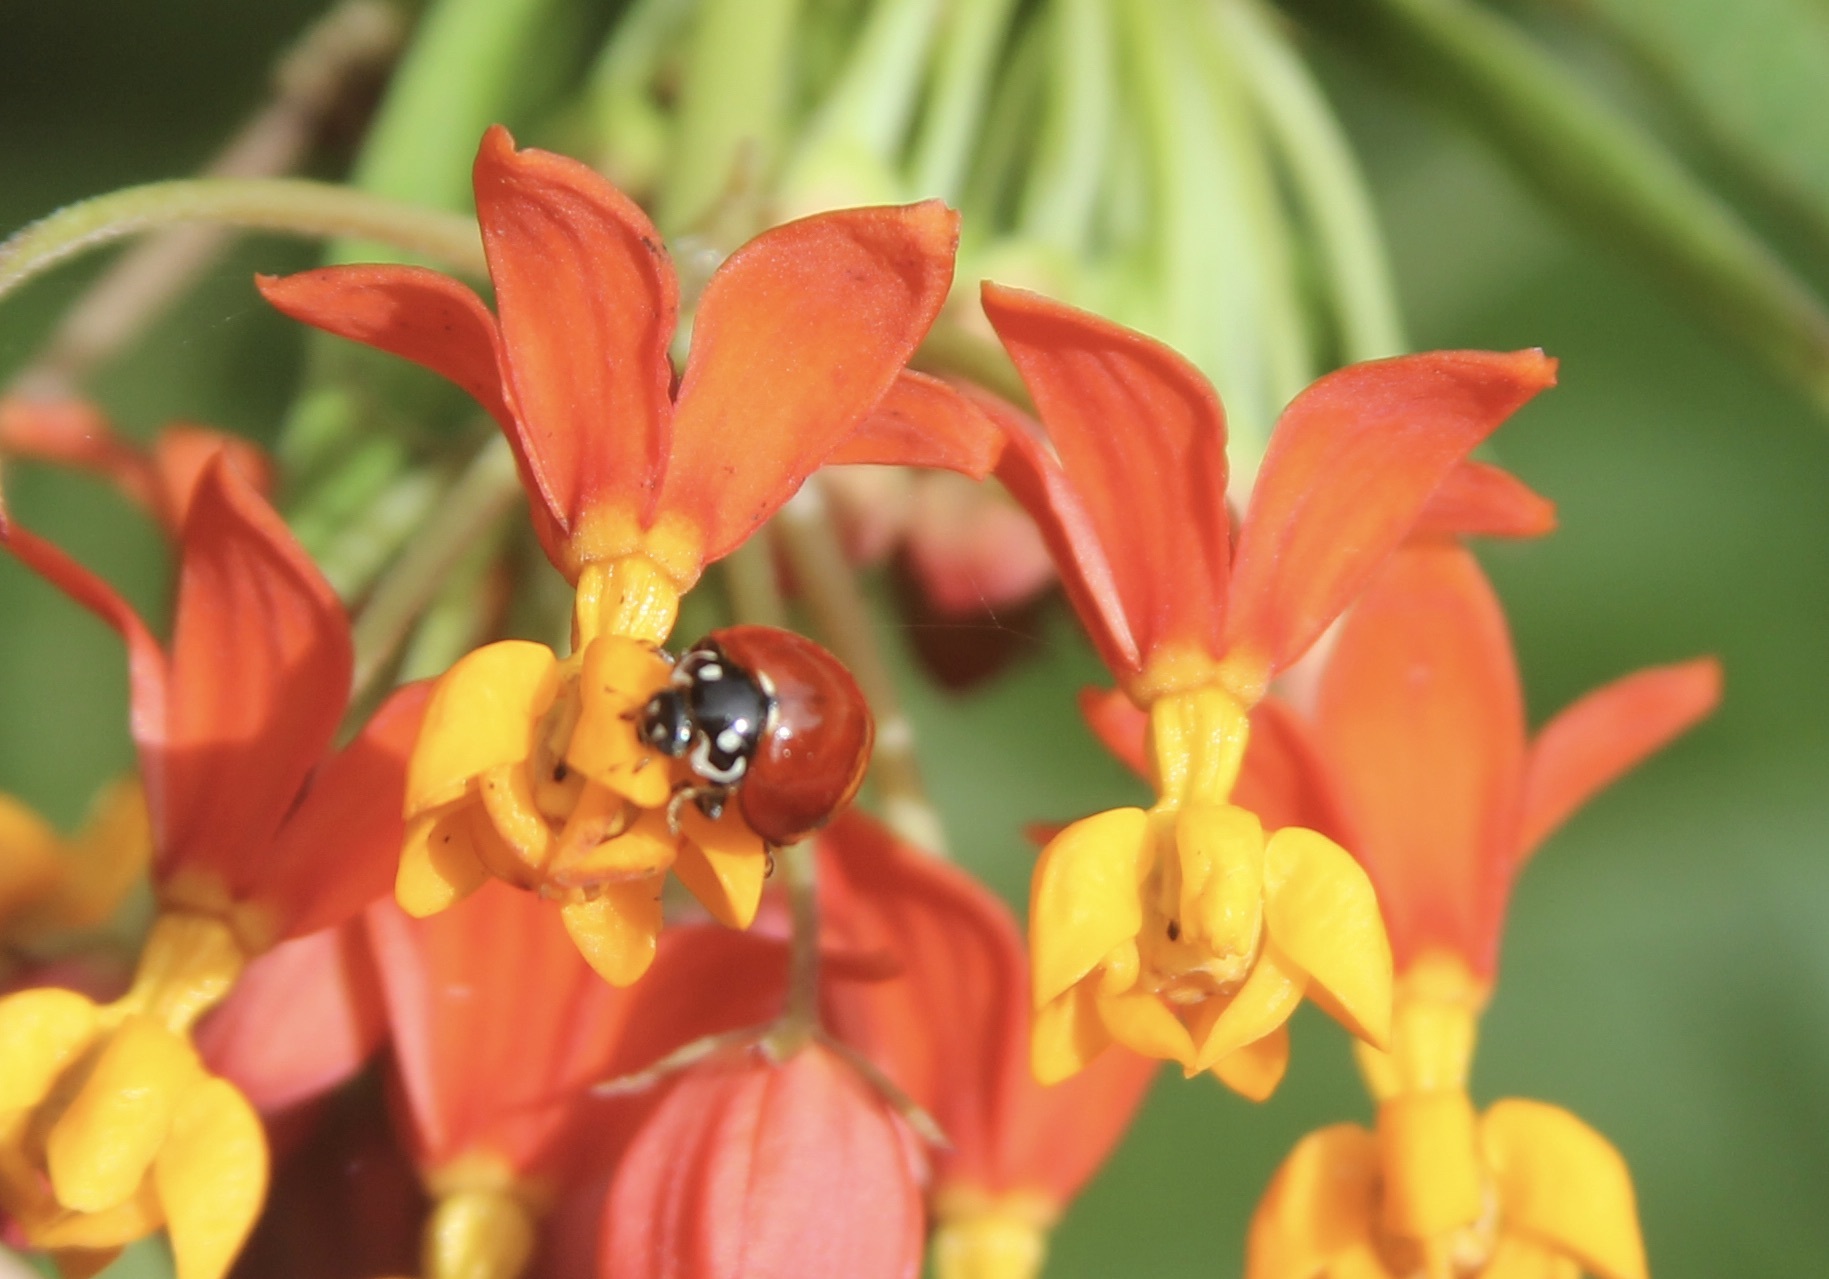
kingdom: Animalia
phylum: Arthropoda
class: Insecta
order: Coleoptera
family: Coccinellidae
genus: Cycloneda
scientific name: Cycloneda sanguinea
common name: Ladybird beetle
